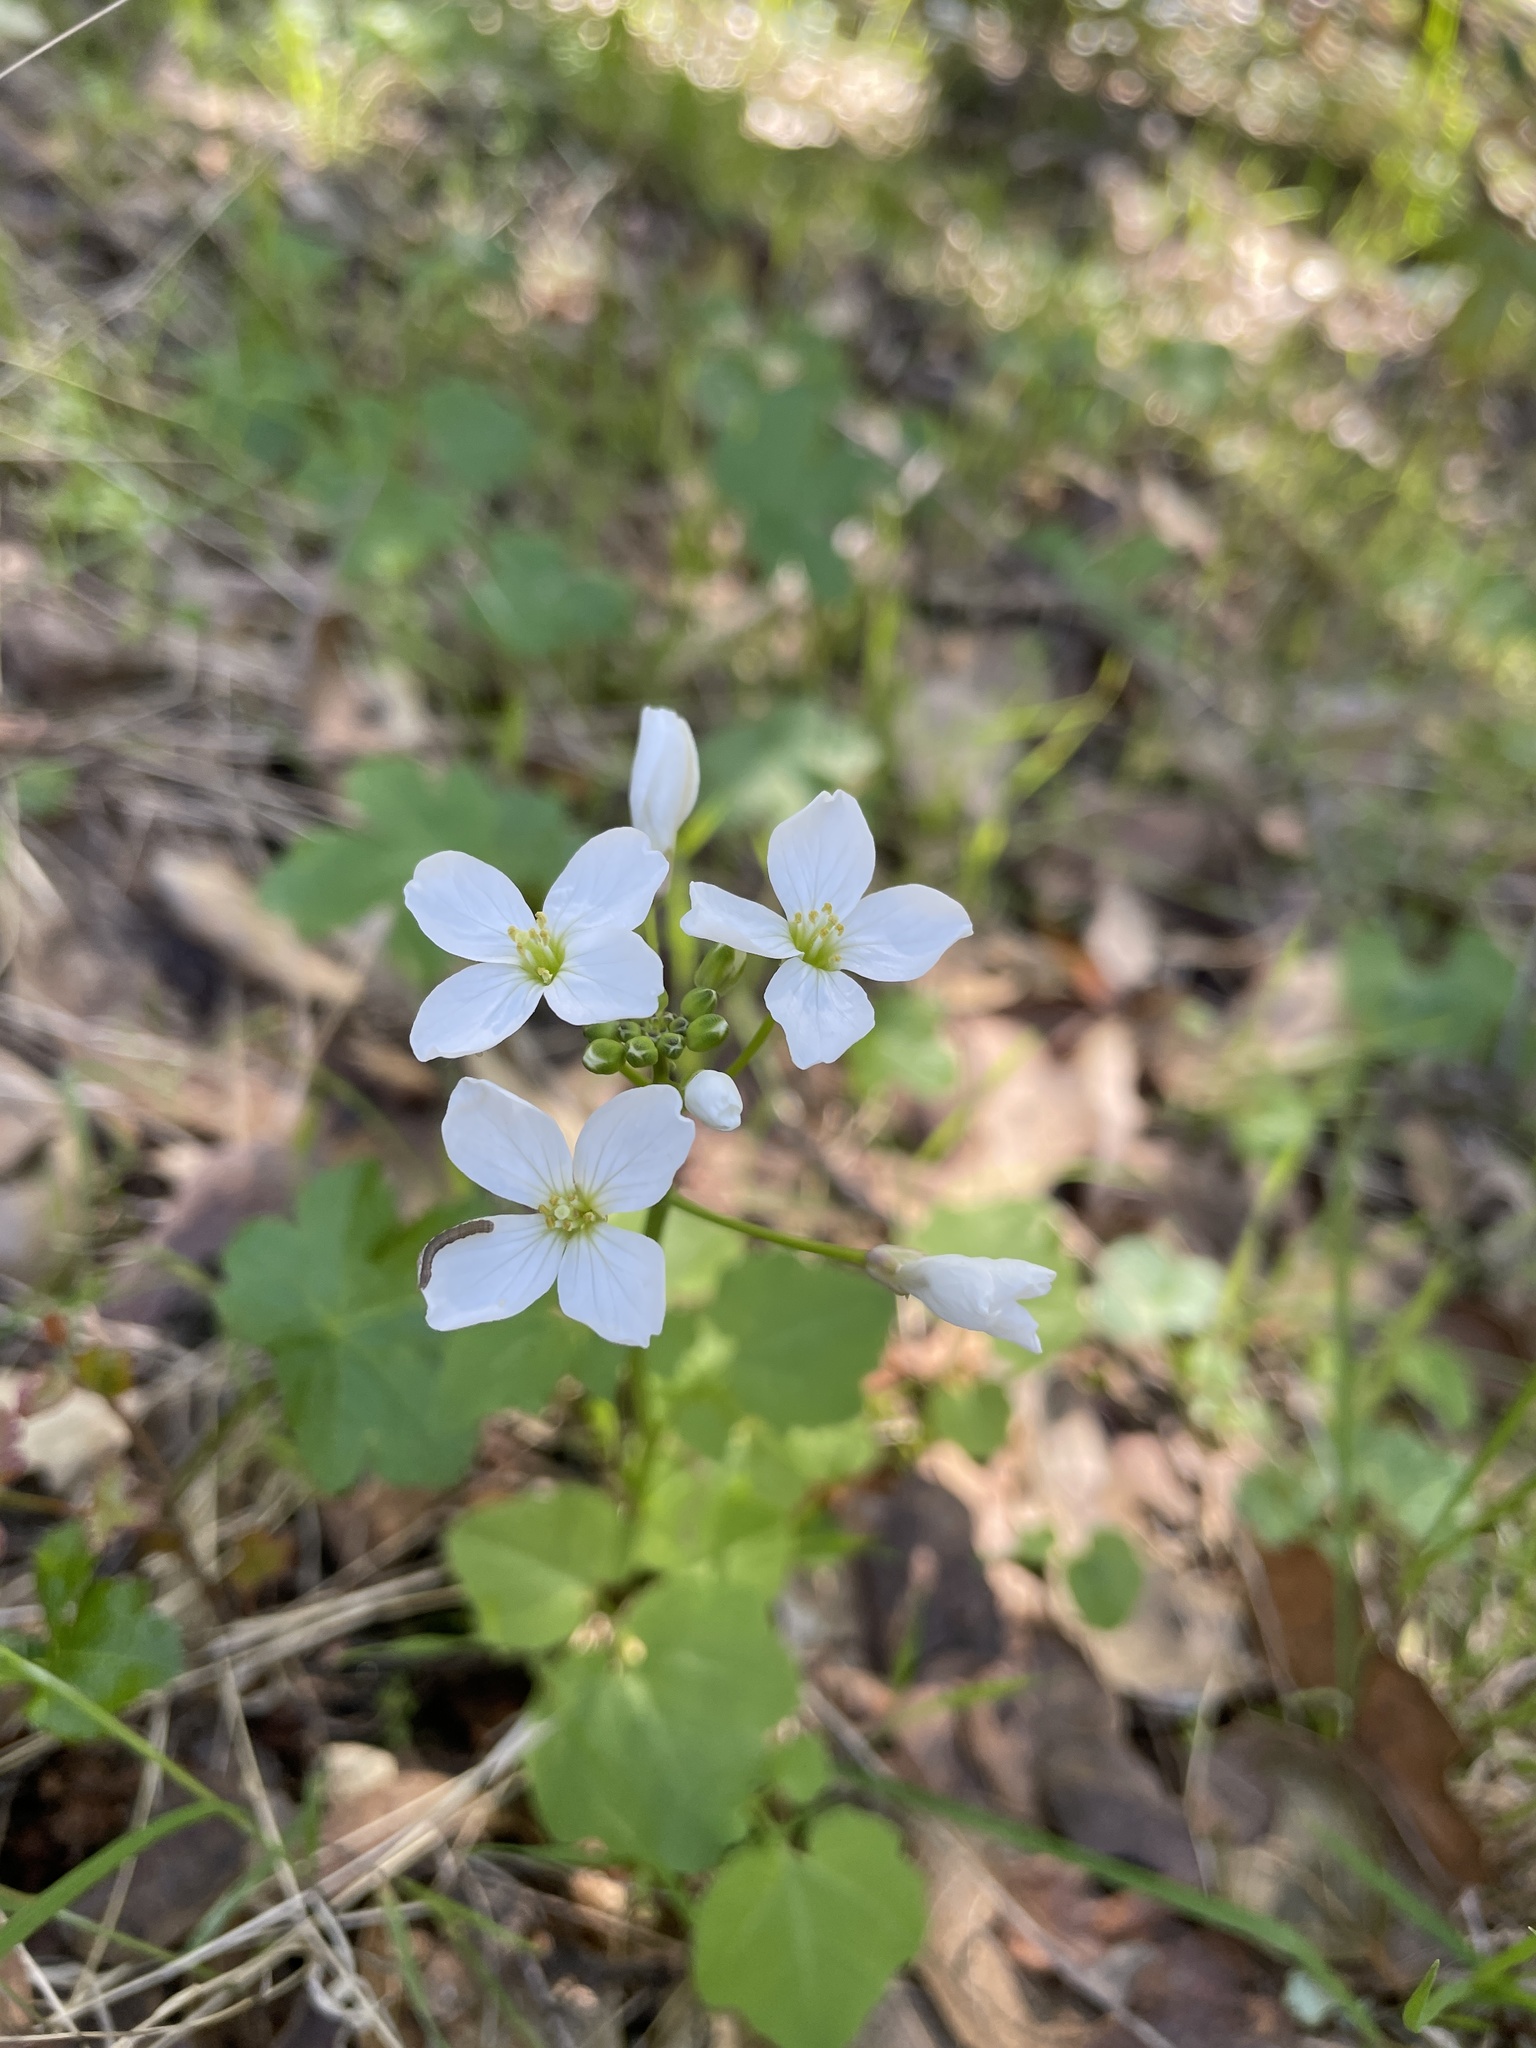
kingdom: Plantae
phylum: Tracheophyta
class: Magnoliopsida
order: Brassicales
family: Brassicaceae
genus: Cardamine
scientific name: Cardamine californica
